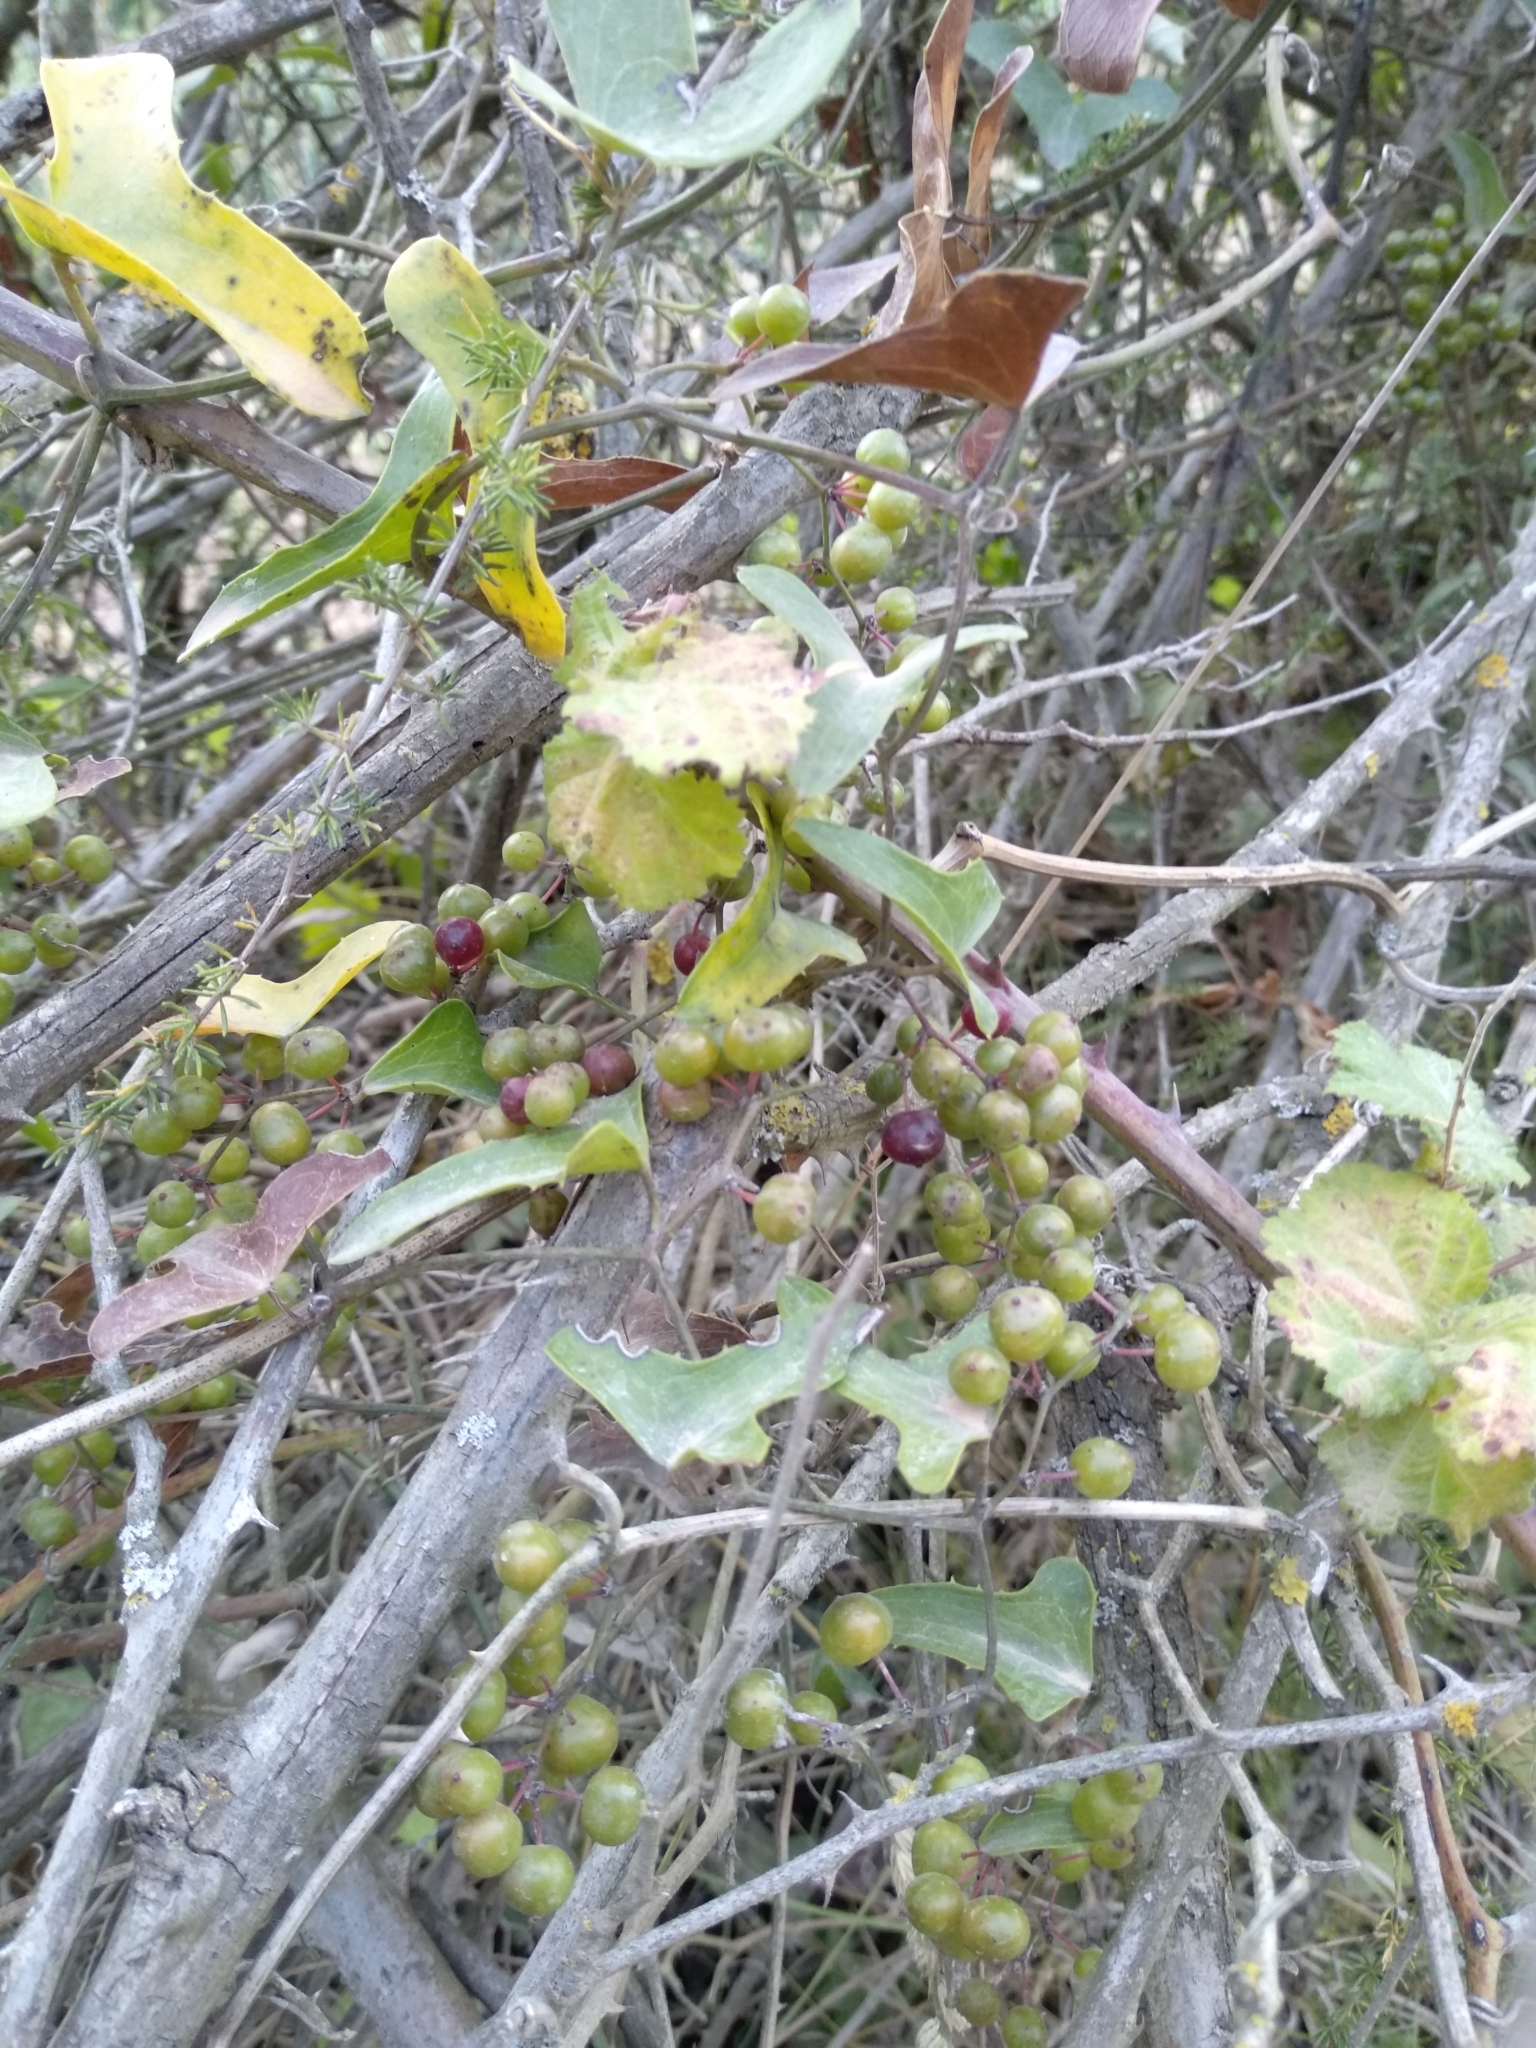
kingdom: Plantae
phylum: Tracheophyta
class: Liliopsida
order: Liliales
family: Smilacaceae
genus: Smilax
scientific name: Smilax aspera
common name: Common smilax
